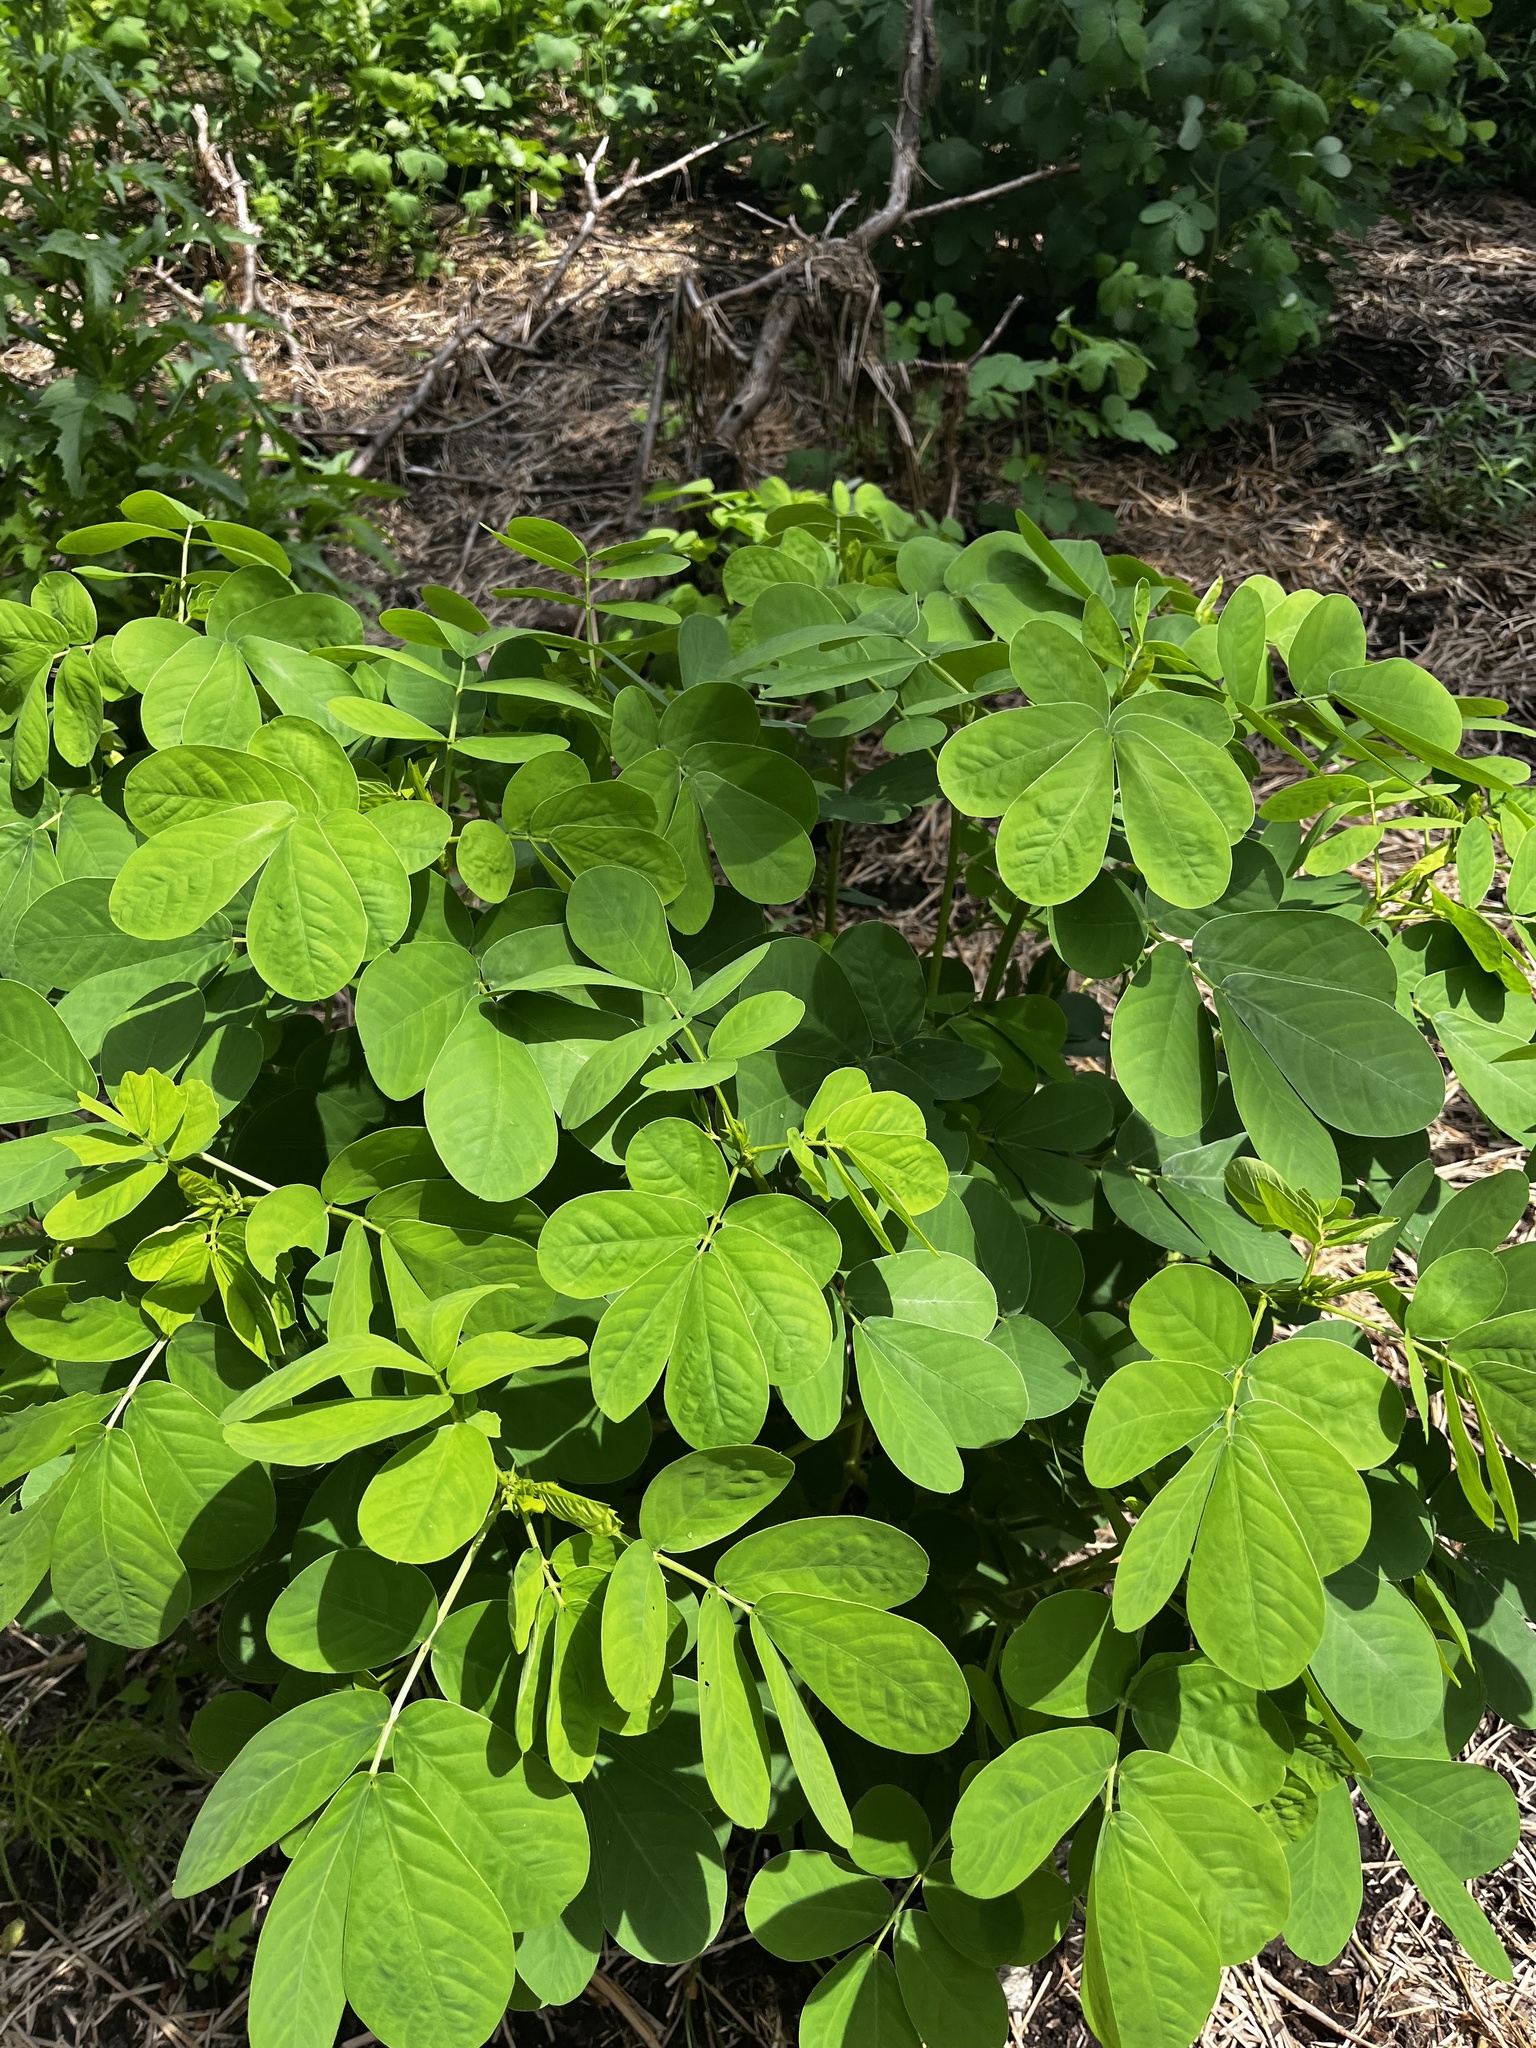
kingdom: Plantae
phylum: Tracheophyta
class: Magnoliopsida
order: Fabales
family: Fabaceae
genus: Senna
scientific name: Senna obtusifolia
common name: Java-bean
